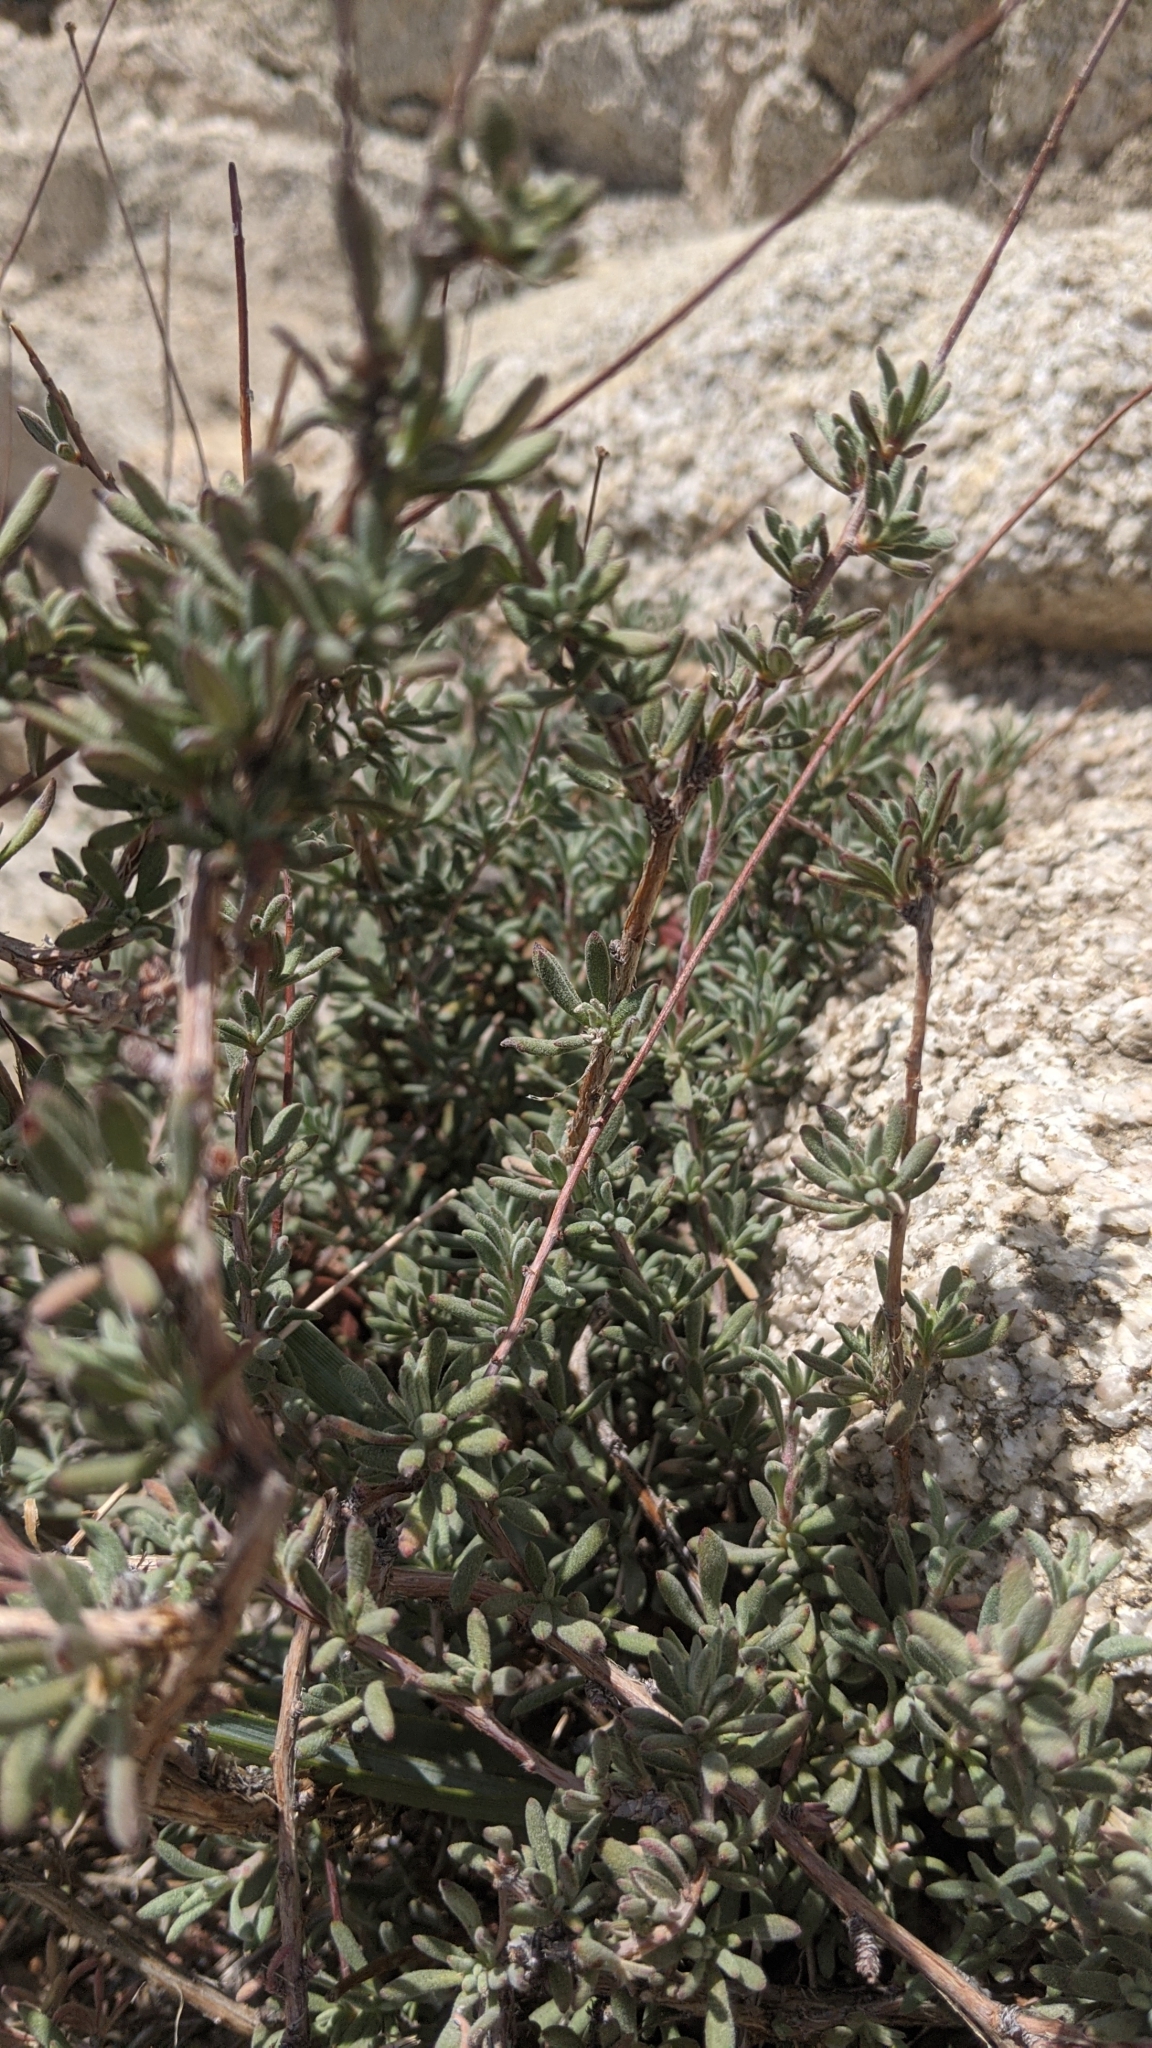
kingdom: Plantae
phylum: Tracheophyta
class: Magnoliopsida
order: Caryophyllales
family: Polygonaceae
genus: Eriogonum
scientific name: Eriogonum fasciculatum
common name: California wild buckwheat
